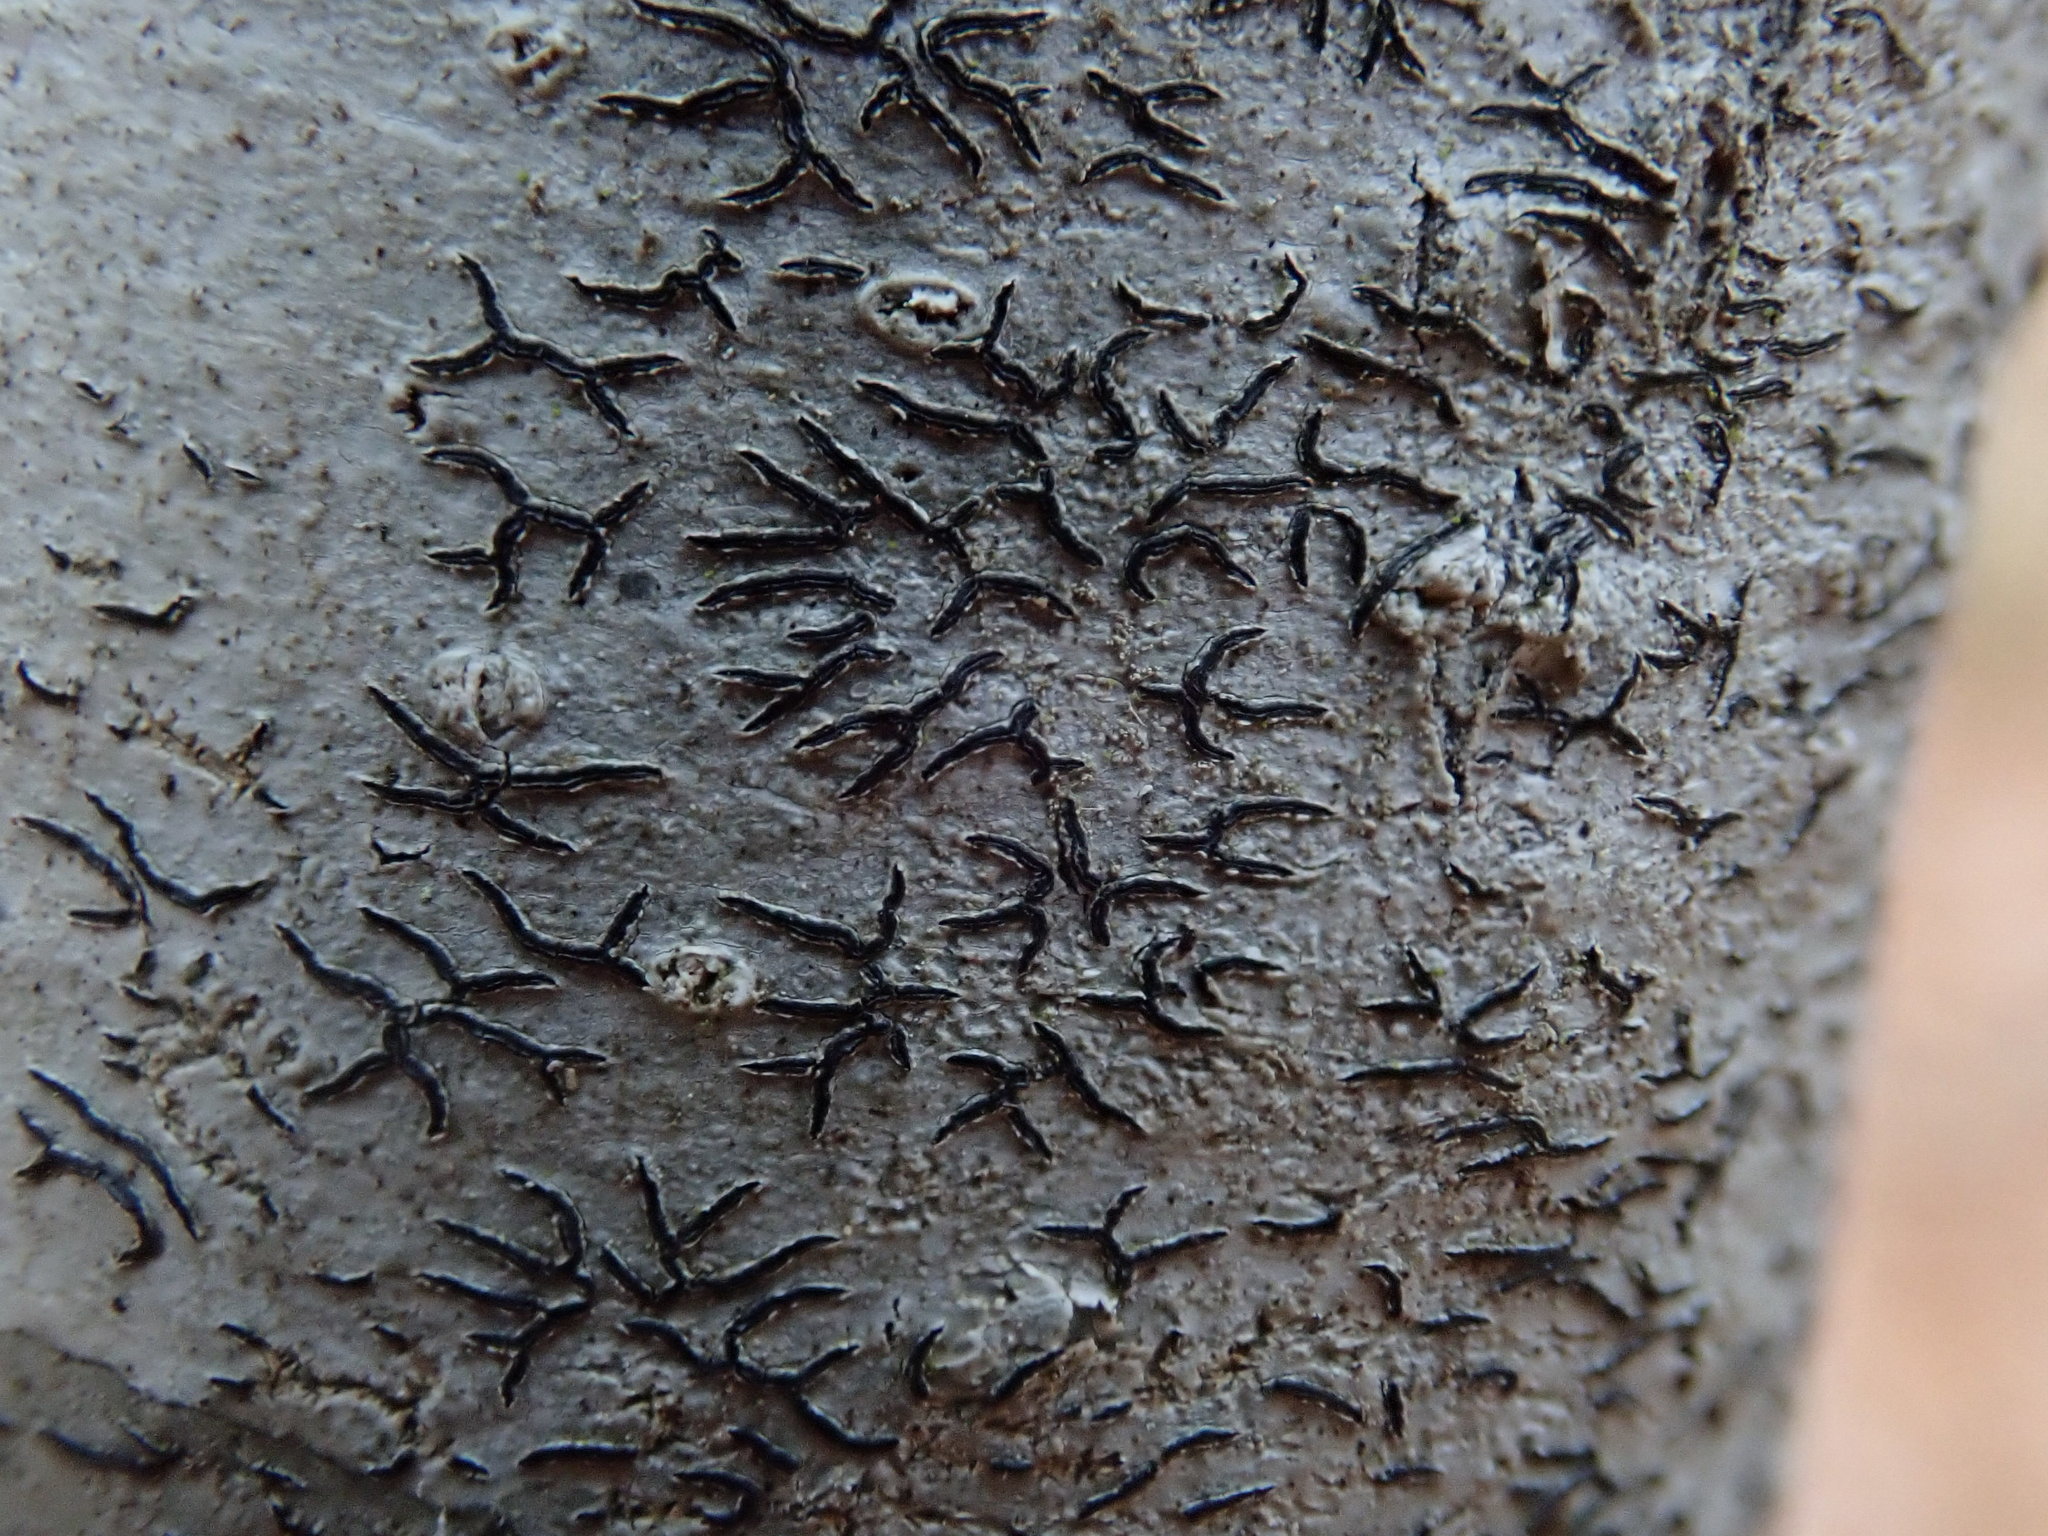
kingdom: Fungi
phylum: Ascomycota
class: Lecanoromycetes
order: Ostropales
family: Graphidaceae
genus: Graphis
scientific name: Graphis scripta
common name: Script lichen
